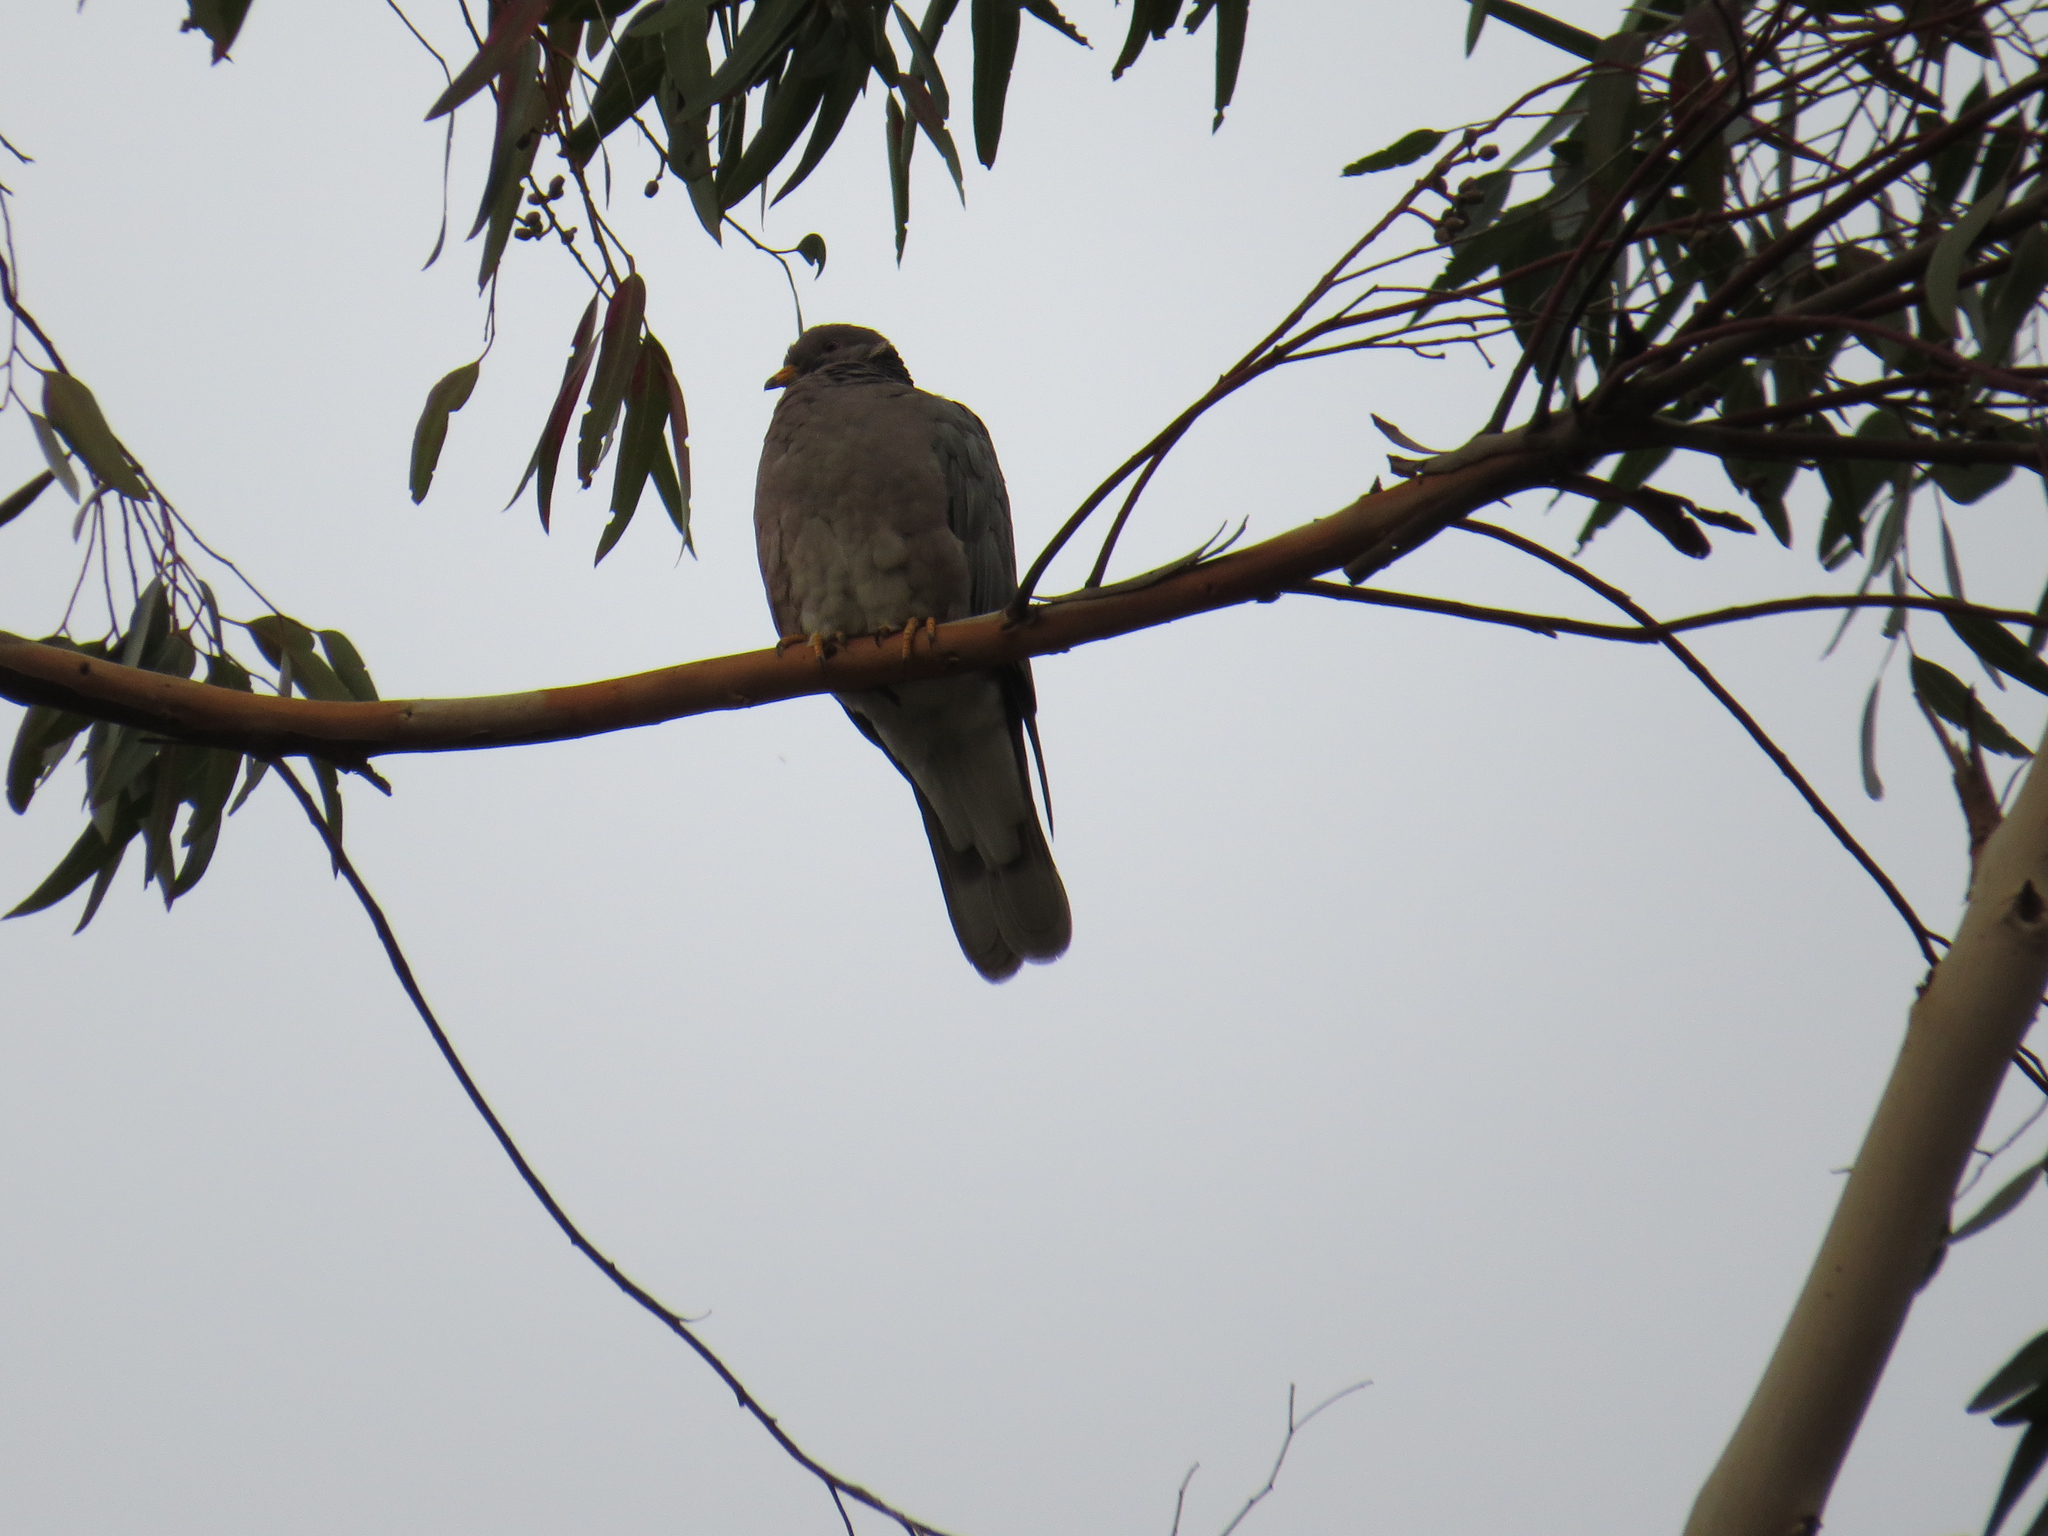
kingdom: Animalia
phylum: Chordata
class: Aves
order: Columbiformes
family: Columbidae
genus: Patagioenas
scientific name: Patagioenas fasciata
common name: Band-tailed pigeon
